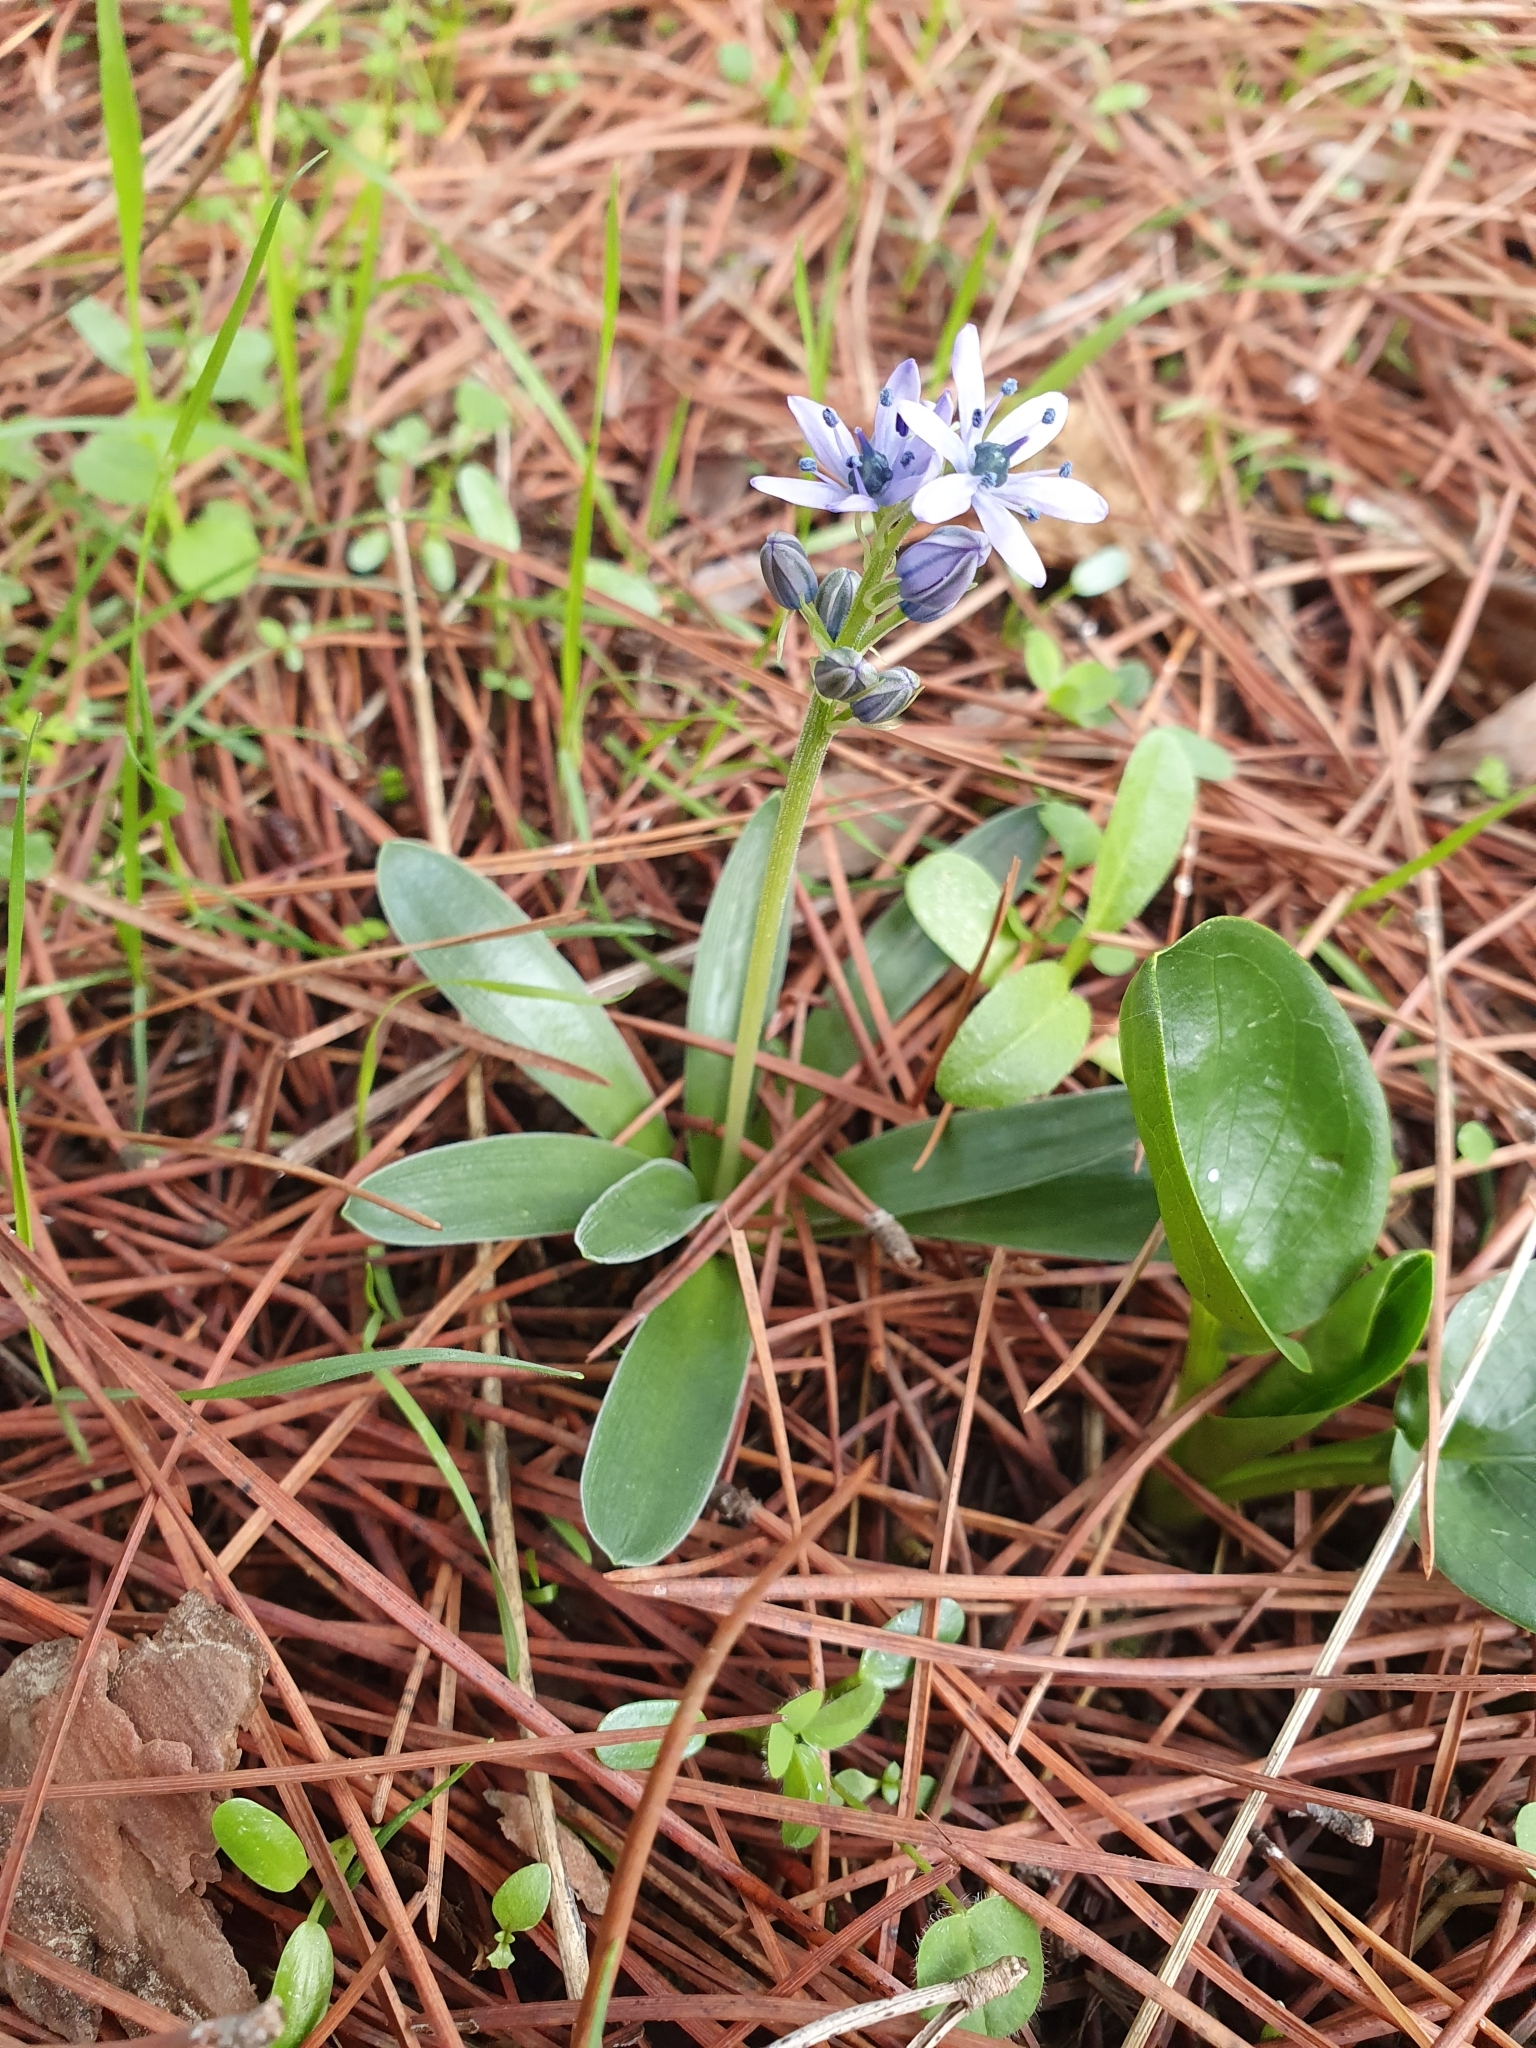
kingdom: Plantae
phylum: Tracheophyta
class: Liliopsida
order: Asparagales
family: Asparagaceae
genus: Hyacinthoides
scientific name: Hyacinthoides lingulata
